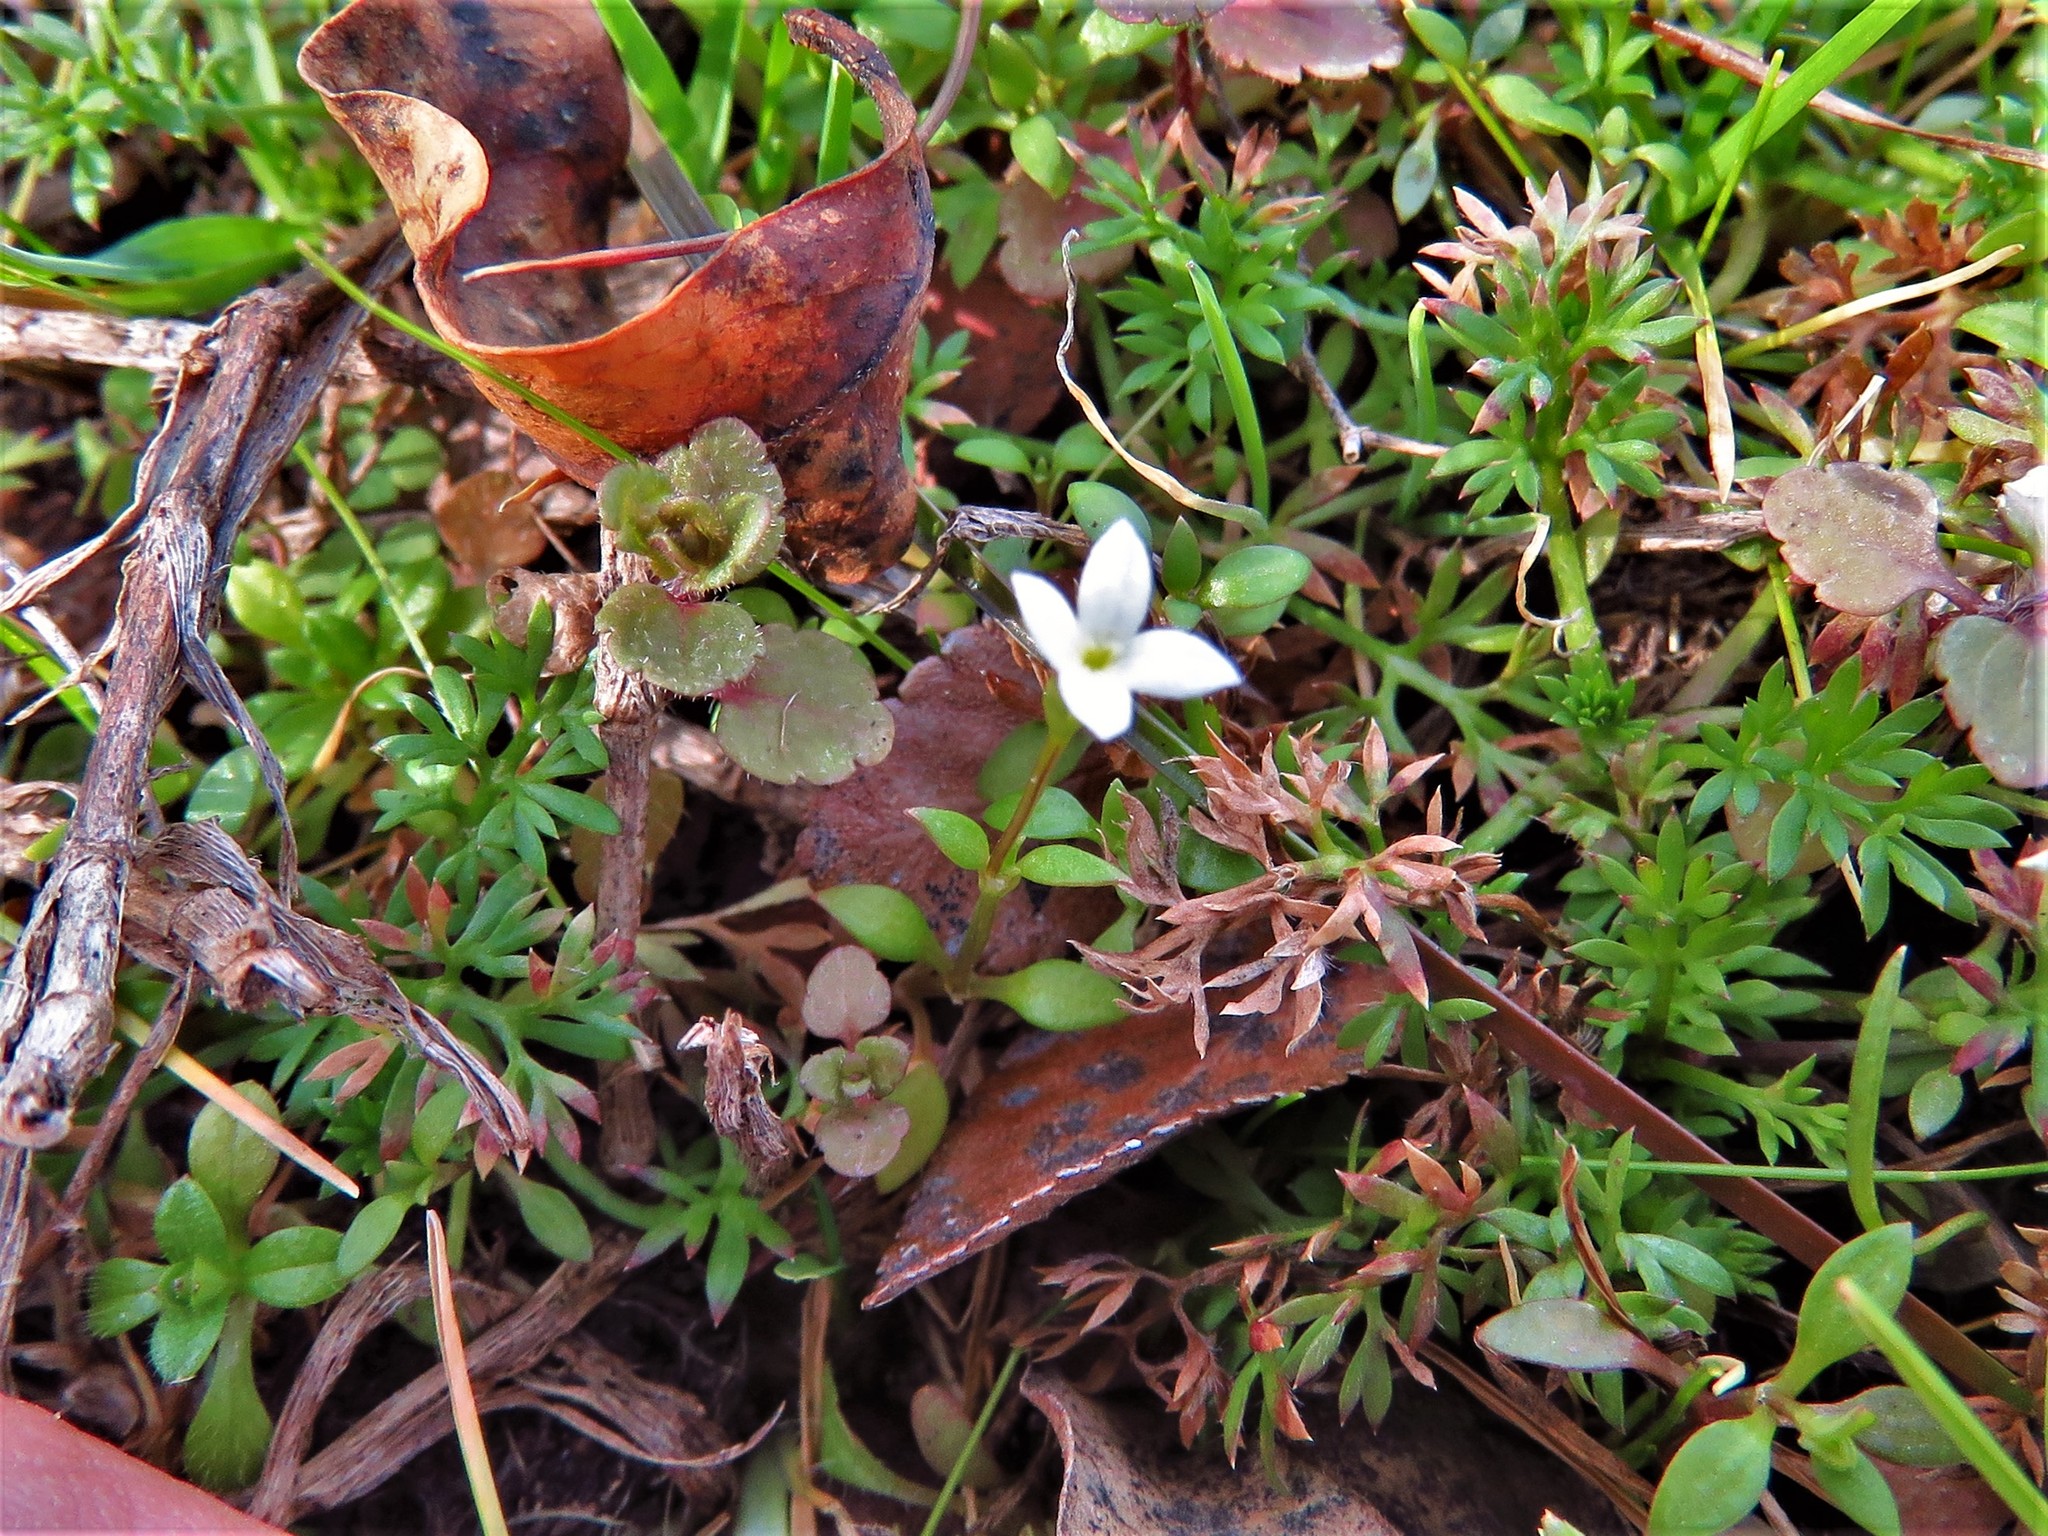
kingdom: Plantae
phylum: Tracheophyta
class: Magnoliopsida
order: Gentianales
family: Rubiaceae
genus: Houstonia
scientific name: Houstonia micrantha
